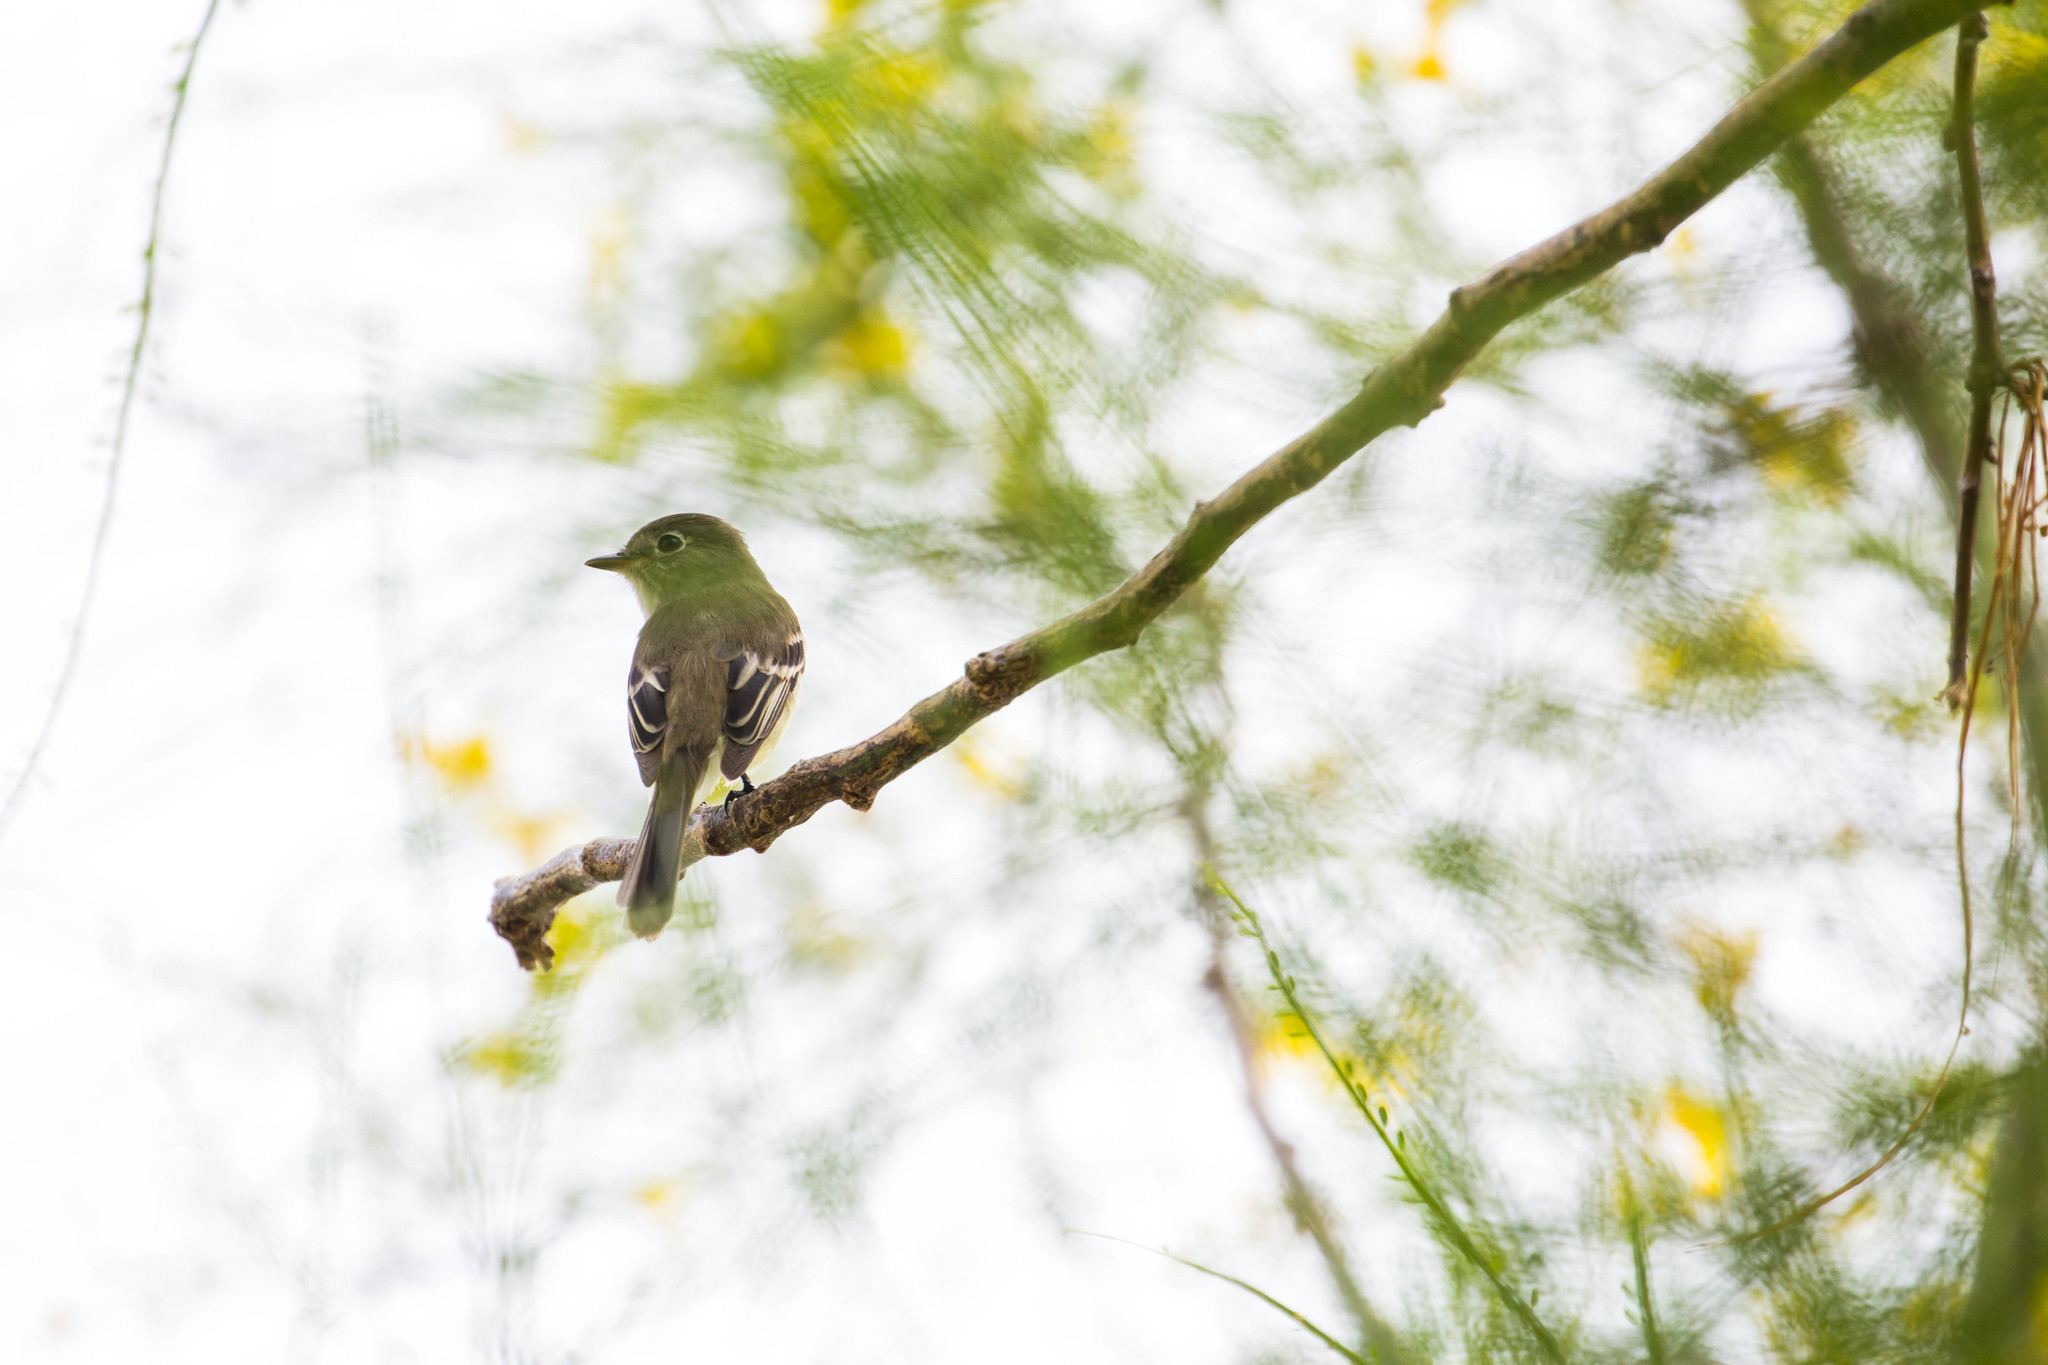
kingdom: Animalia
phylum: Chordata
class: Aves
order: Passeriformes
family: Tyrannidae
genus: Empidonax
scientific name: Empidonax minimus
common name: Least flycatcher
